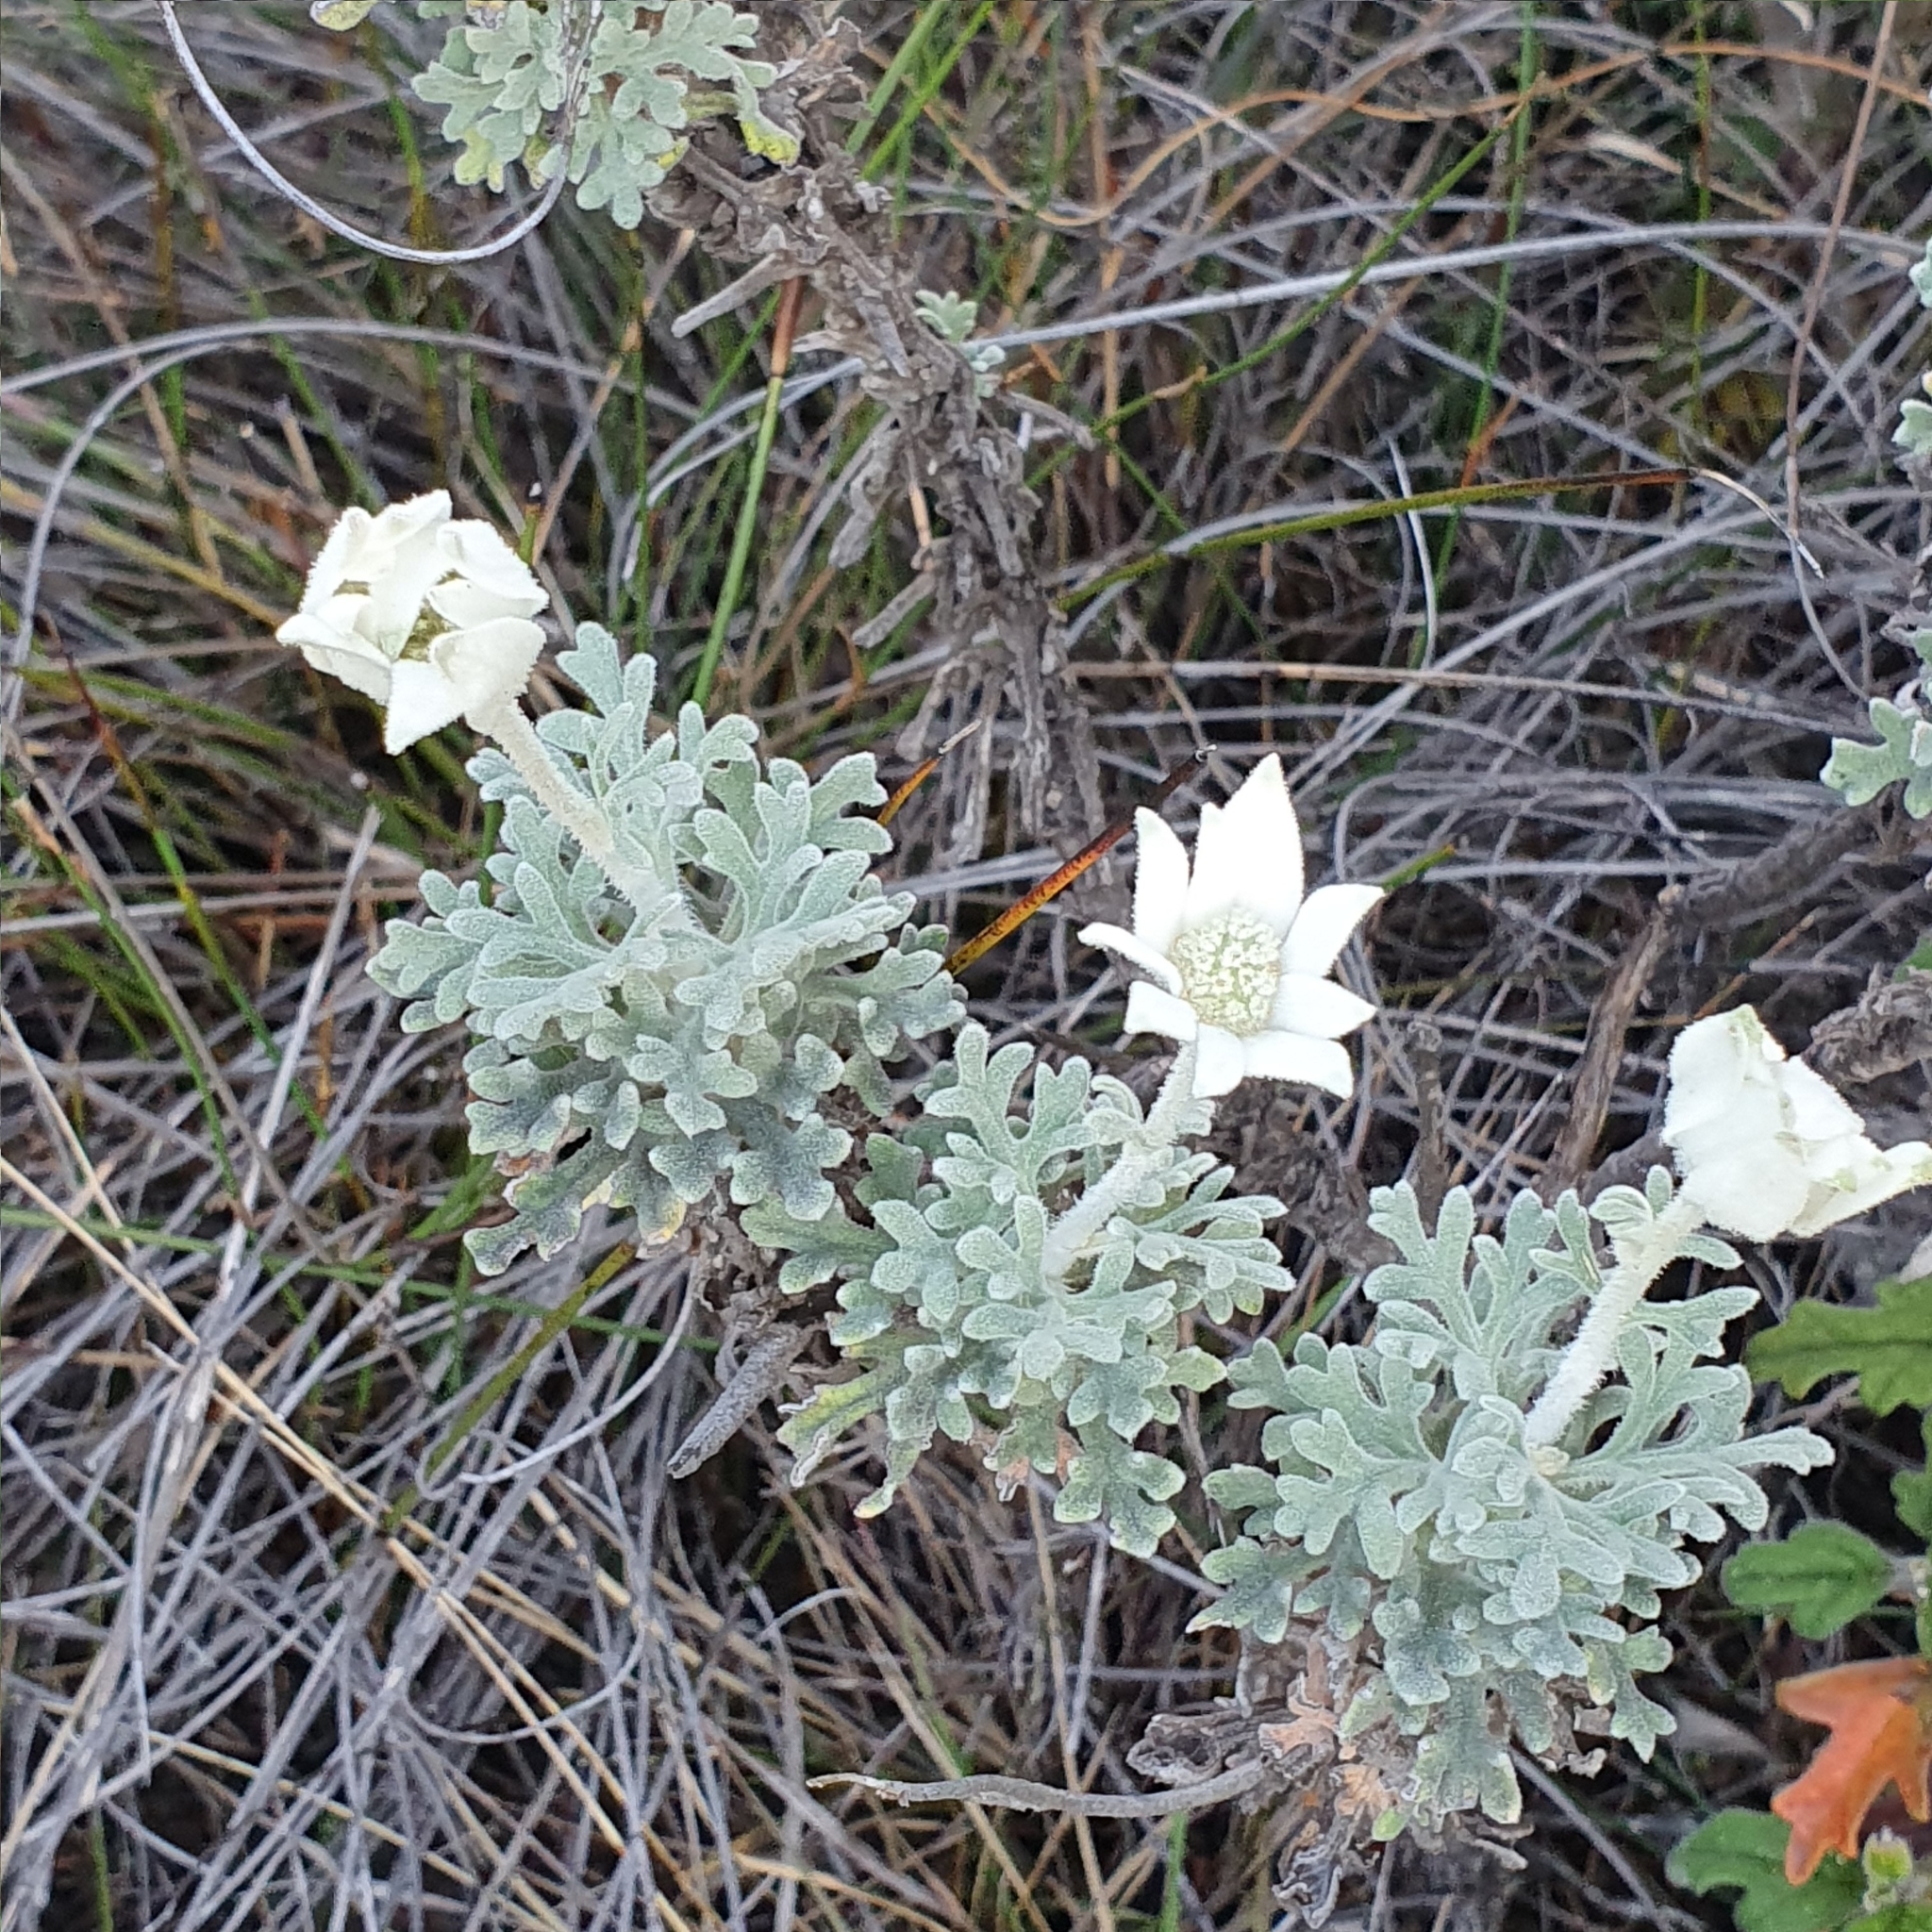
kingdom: Plantae
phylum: Tracheophyta
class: Magnoliopsida
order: Apiales
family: Apiaceae
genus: Actinotus
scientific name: Actinotus helianthi
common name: Flannel-flower
